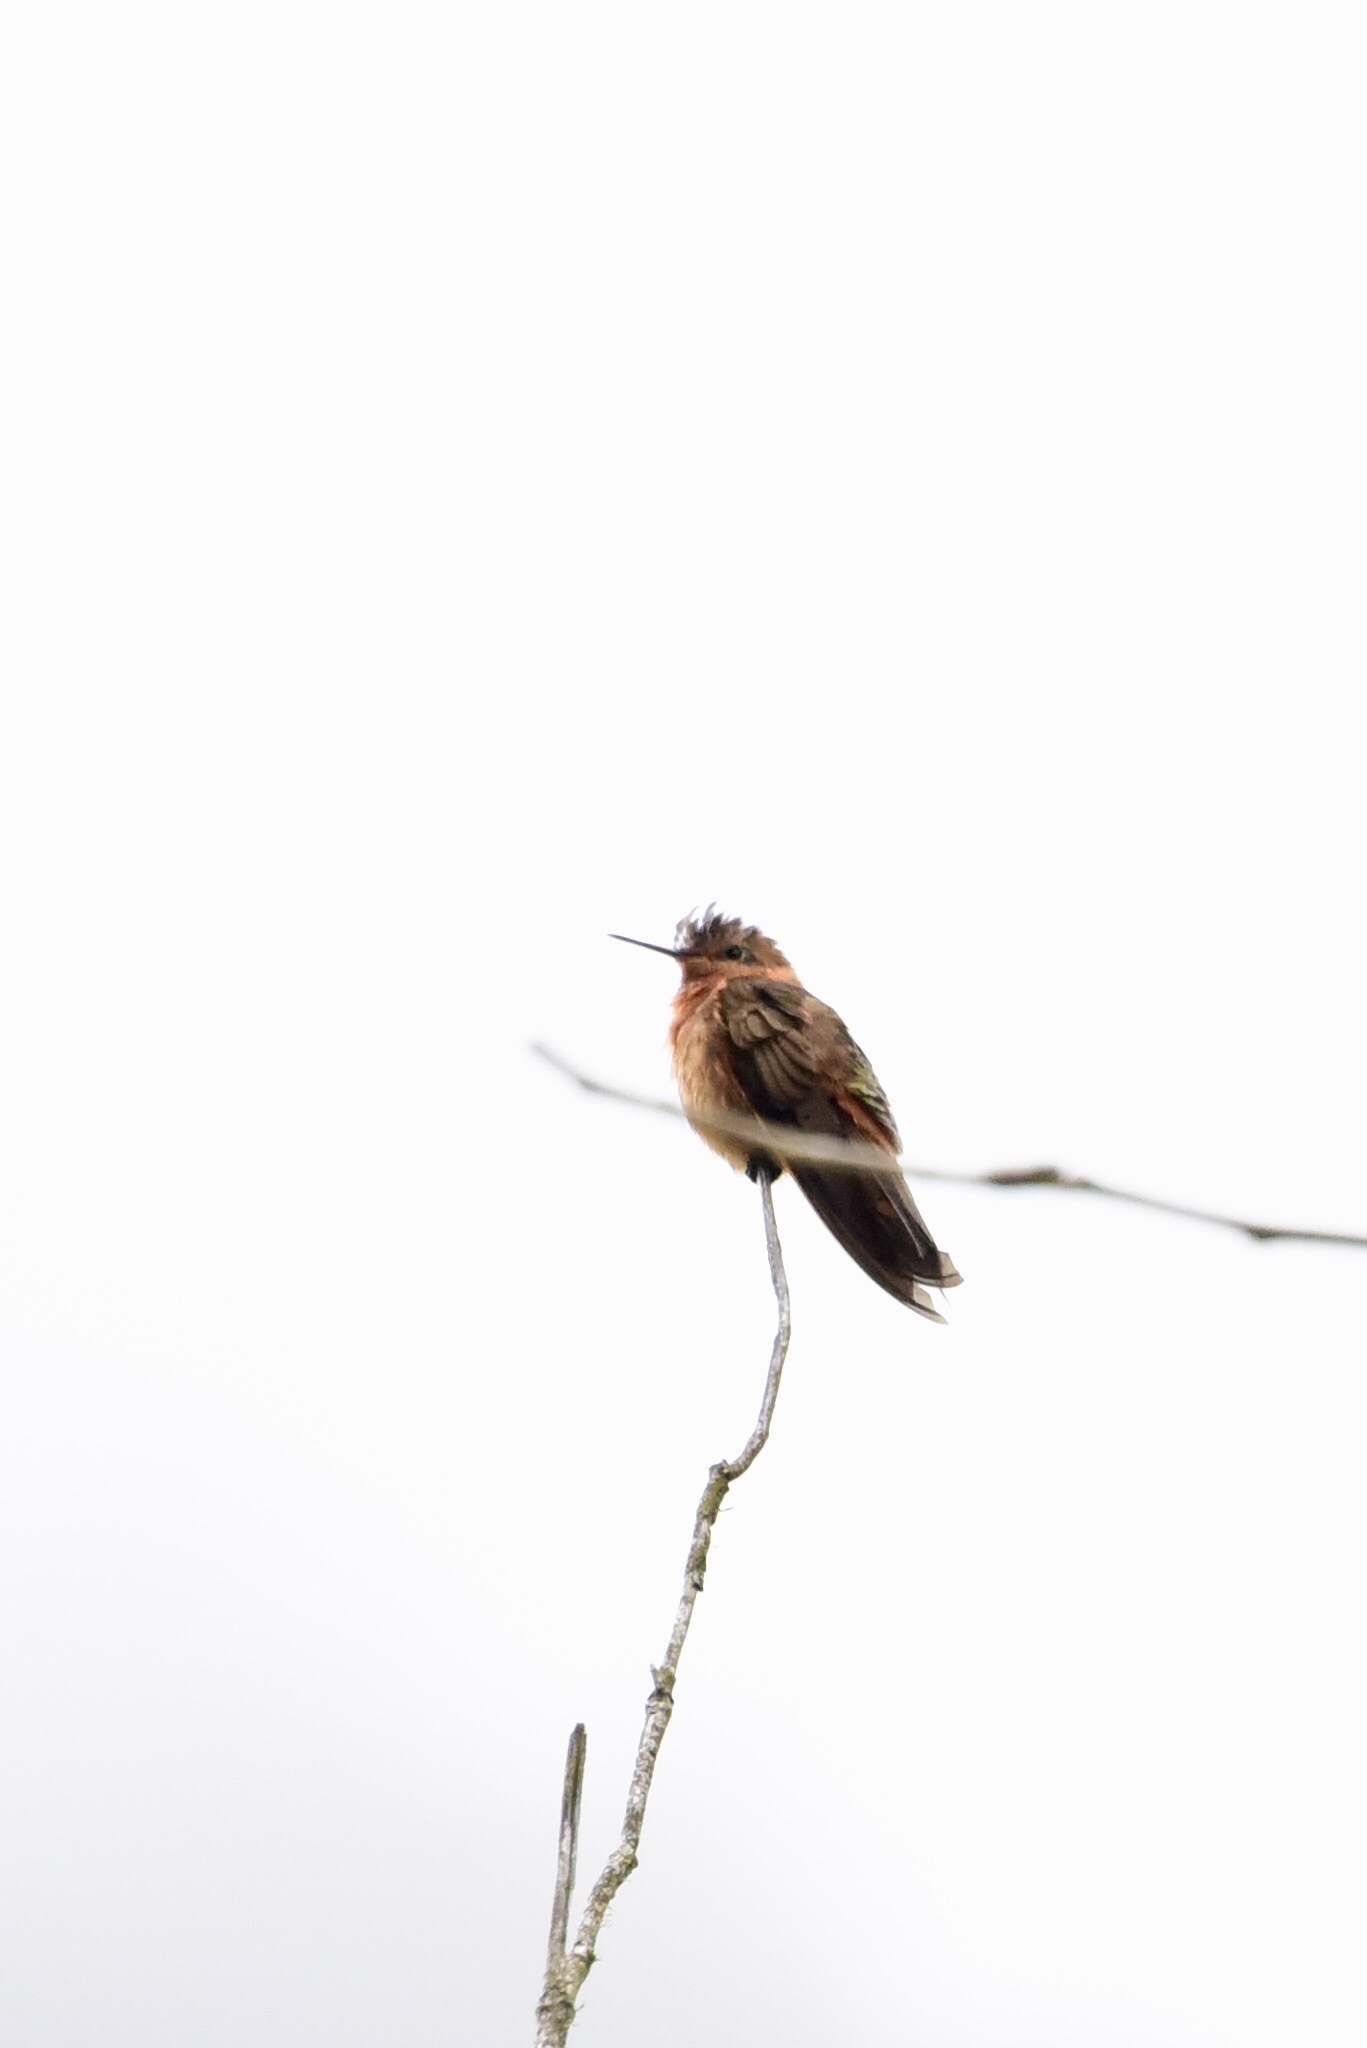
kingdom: Animalia
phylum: Chordata
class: Aves
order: Apodiformes
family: Trochilidae
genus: Aglaeactis
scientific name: Aglaeactis cupripennis
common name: Shining sunbeam
